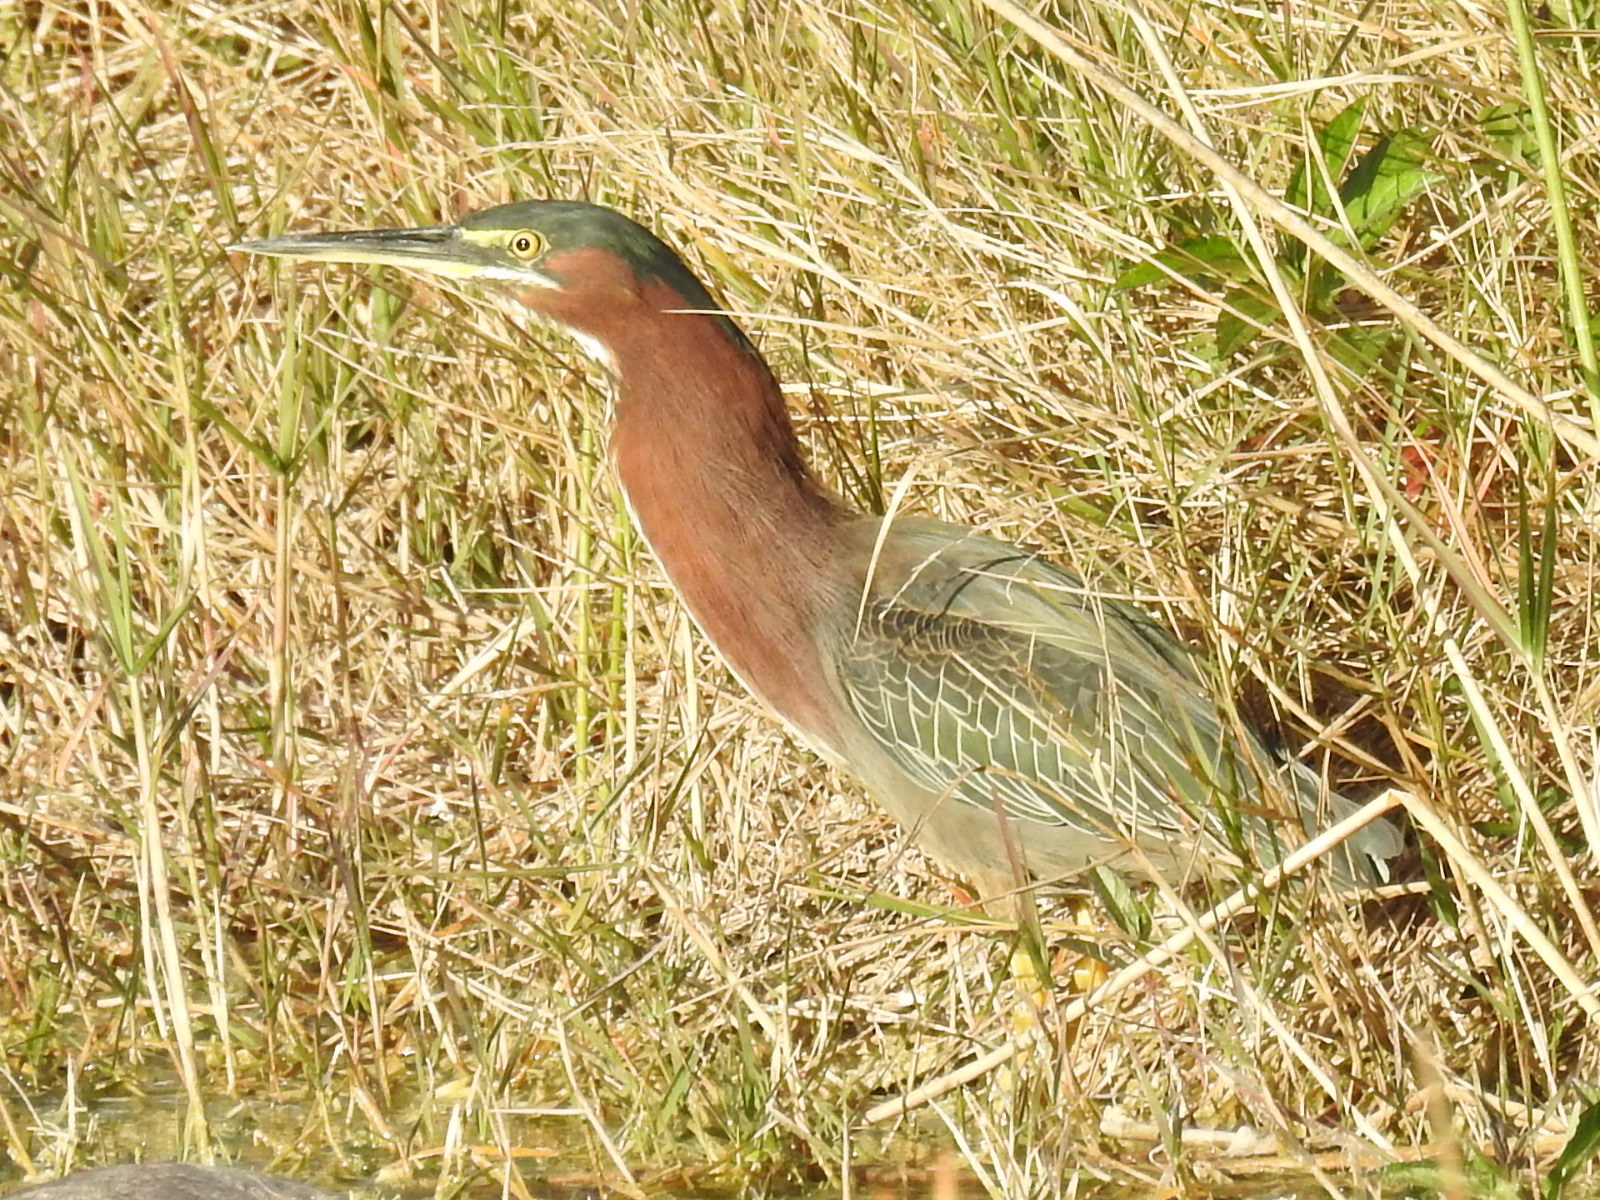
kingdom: Animalia
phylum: Chordata
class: Aves
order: Pelecaniformes
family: Ardeidae
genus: Butorides
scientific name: Butorides virescens
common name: Green heron
